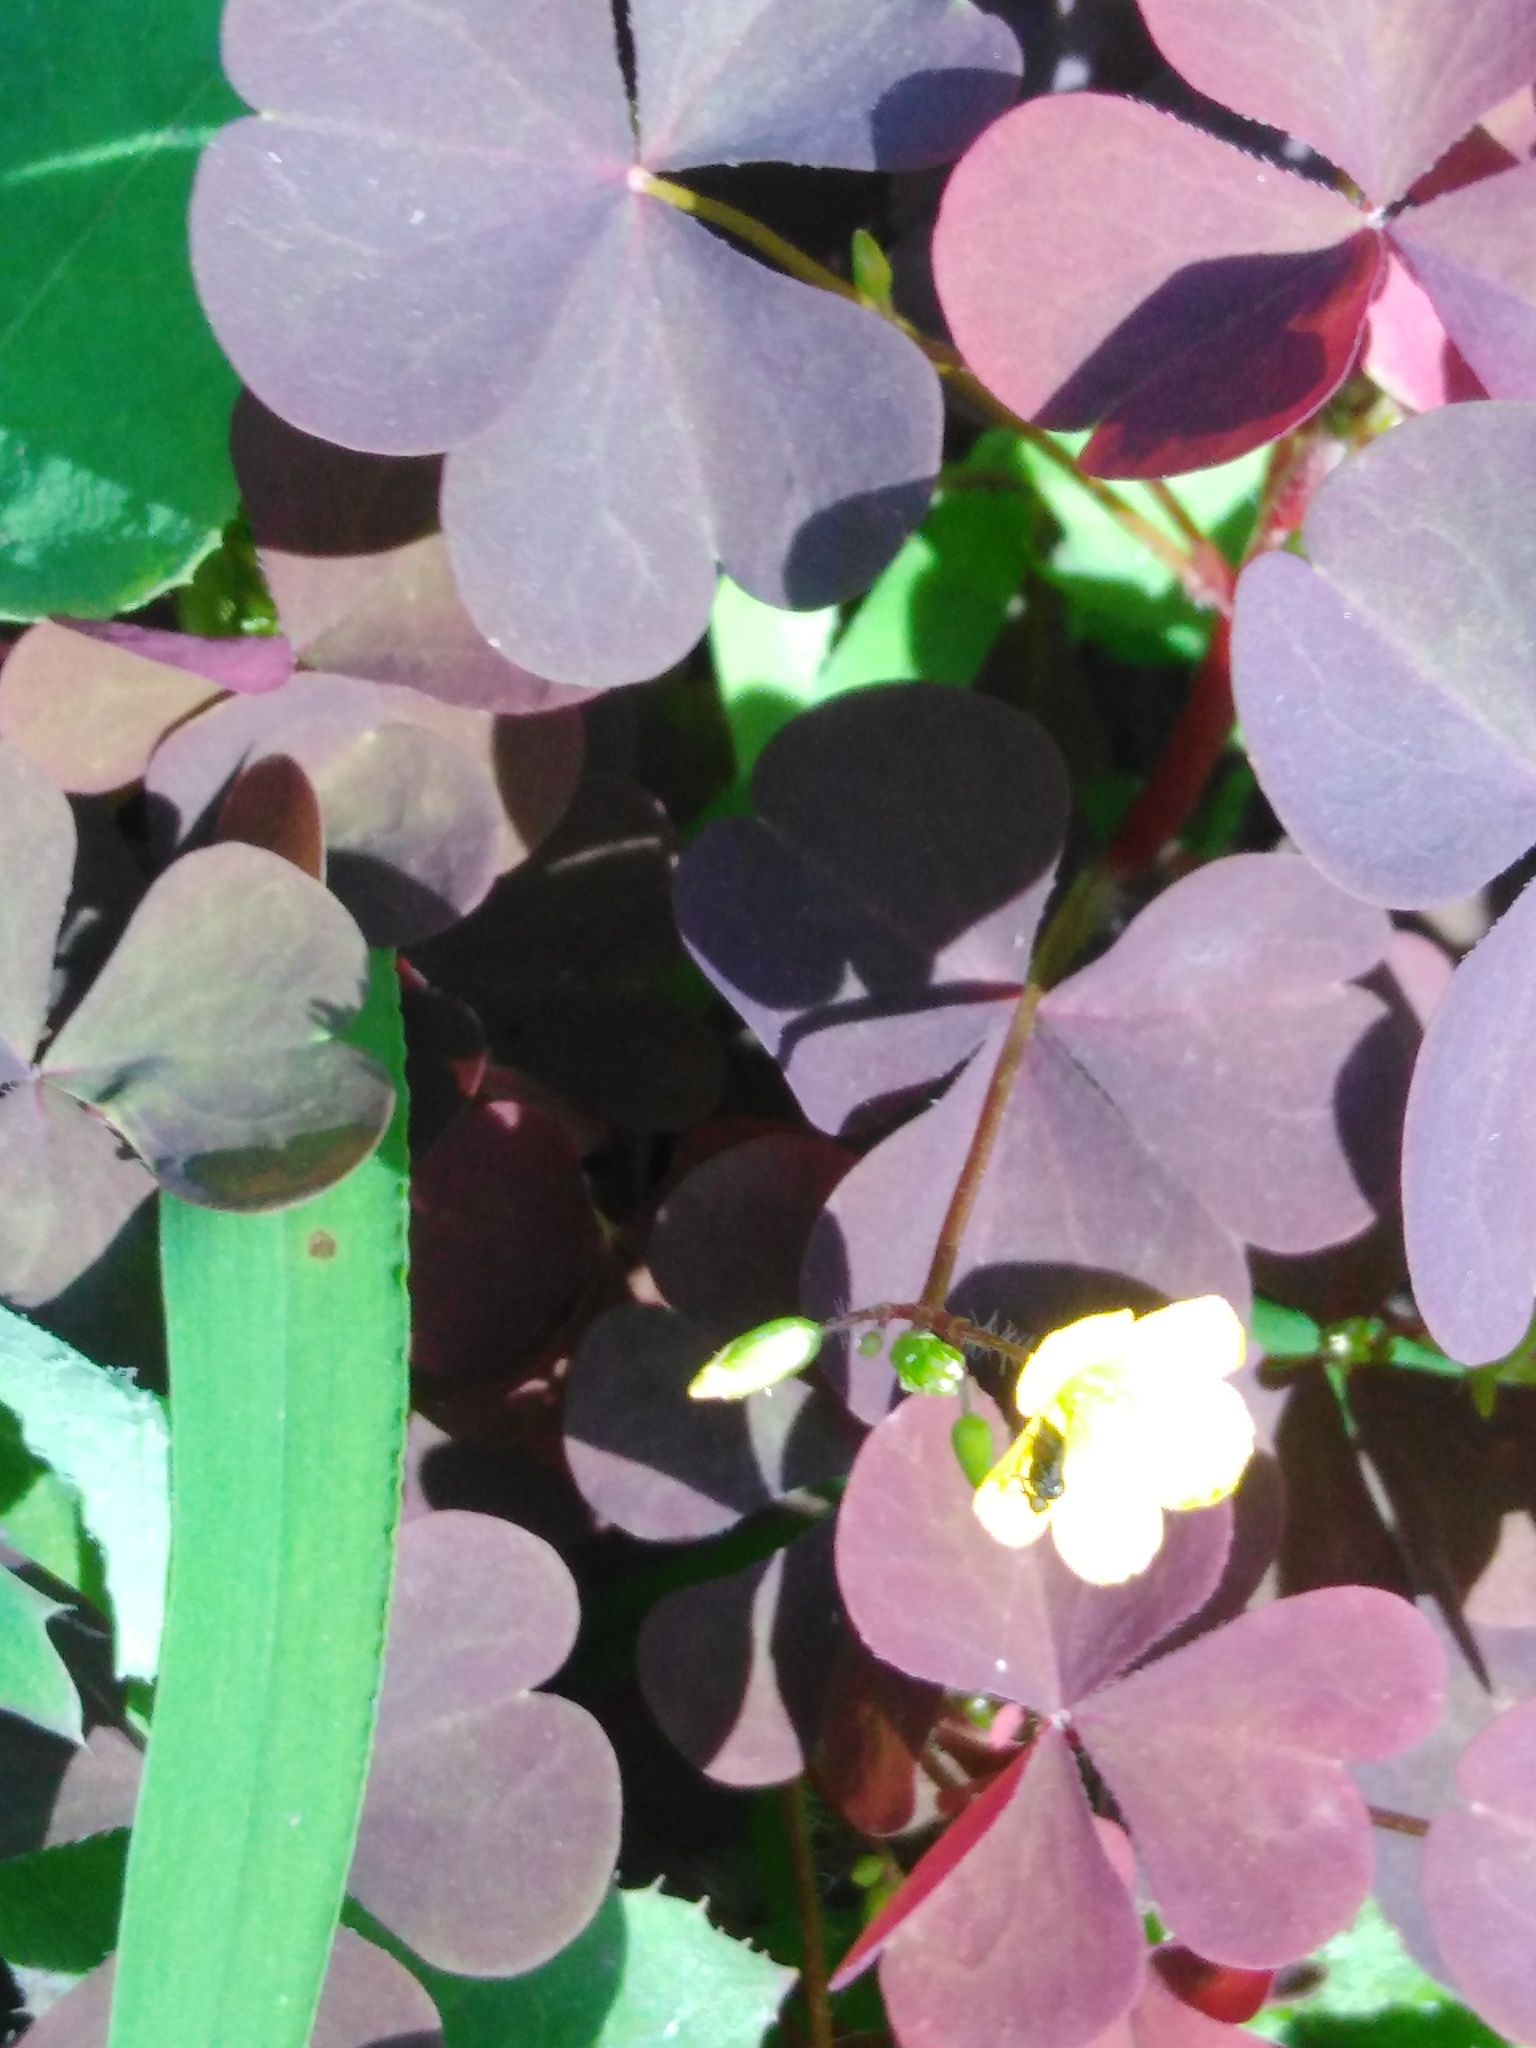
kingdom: Plantae
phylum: Tracheophyta
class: Magnoliopsida
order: Oxalidales
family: Oxalidaceae
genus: Oxalis
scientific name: Oxalis stricta
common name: Upright yellow-sorrel
